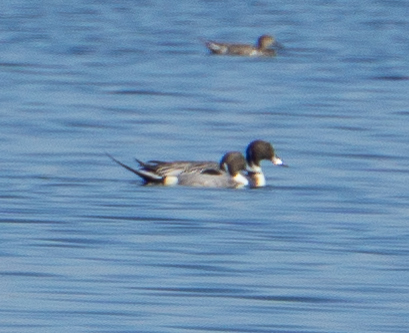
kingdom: Animalia
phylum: Chordata
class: Aves
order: Anseriformes
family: Anatidae
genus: Anas
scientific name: Anas acuta
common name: Northern pintail
